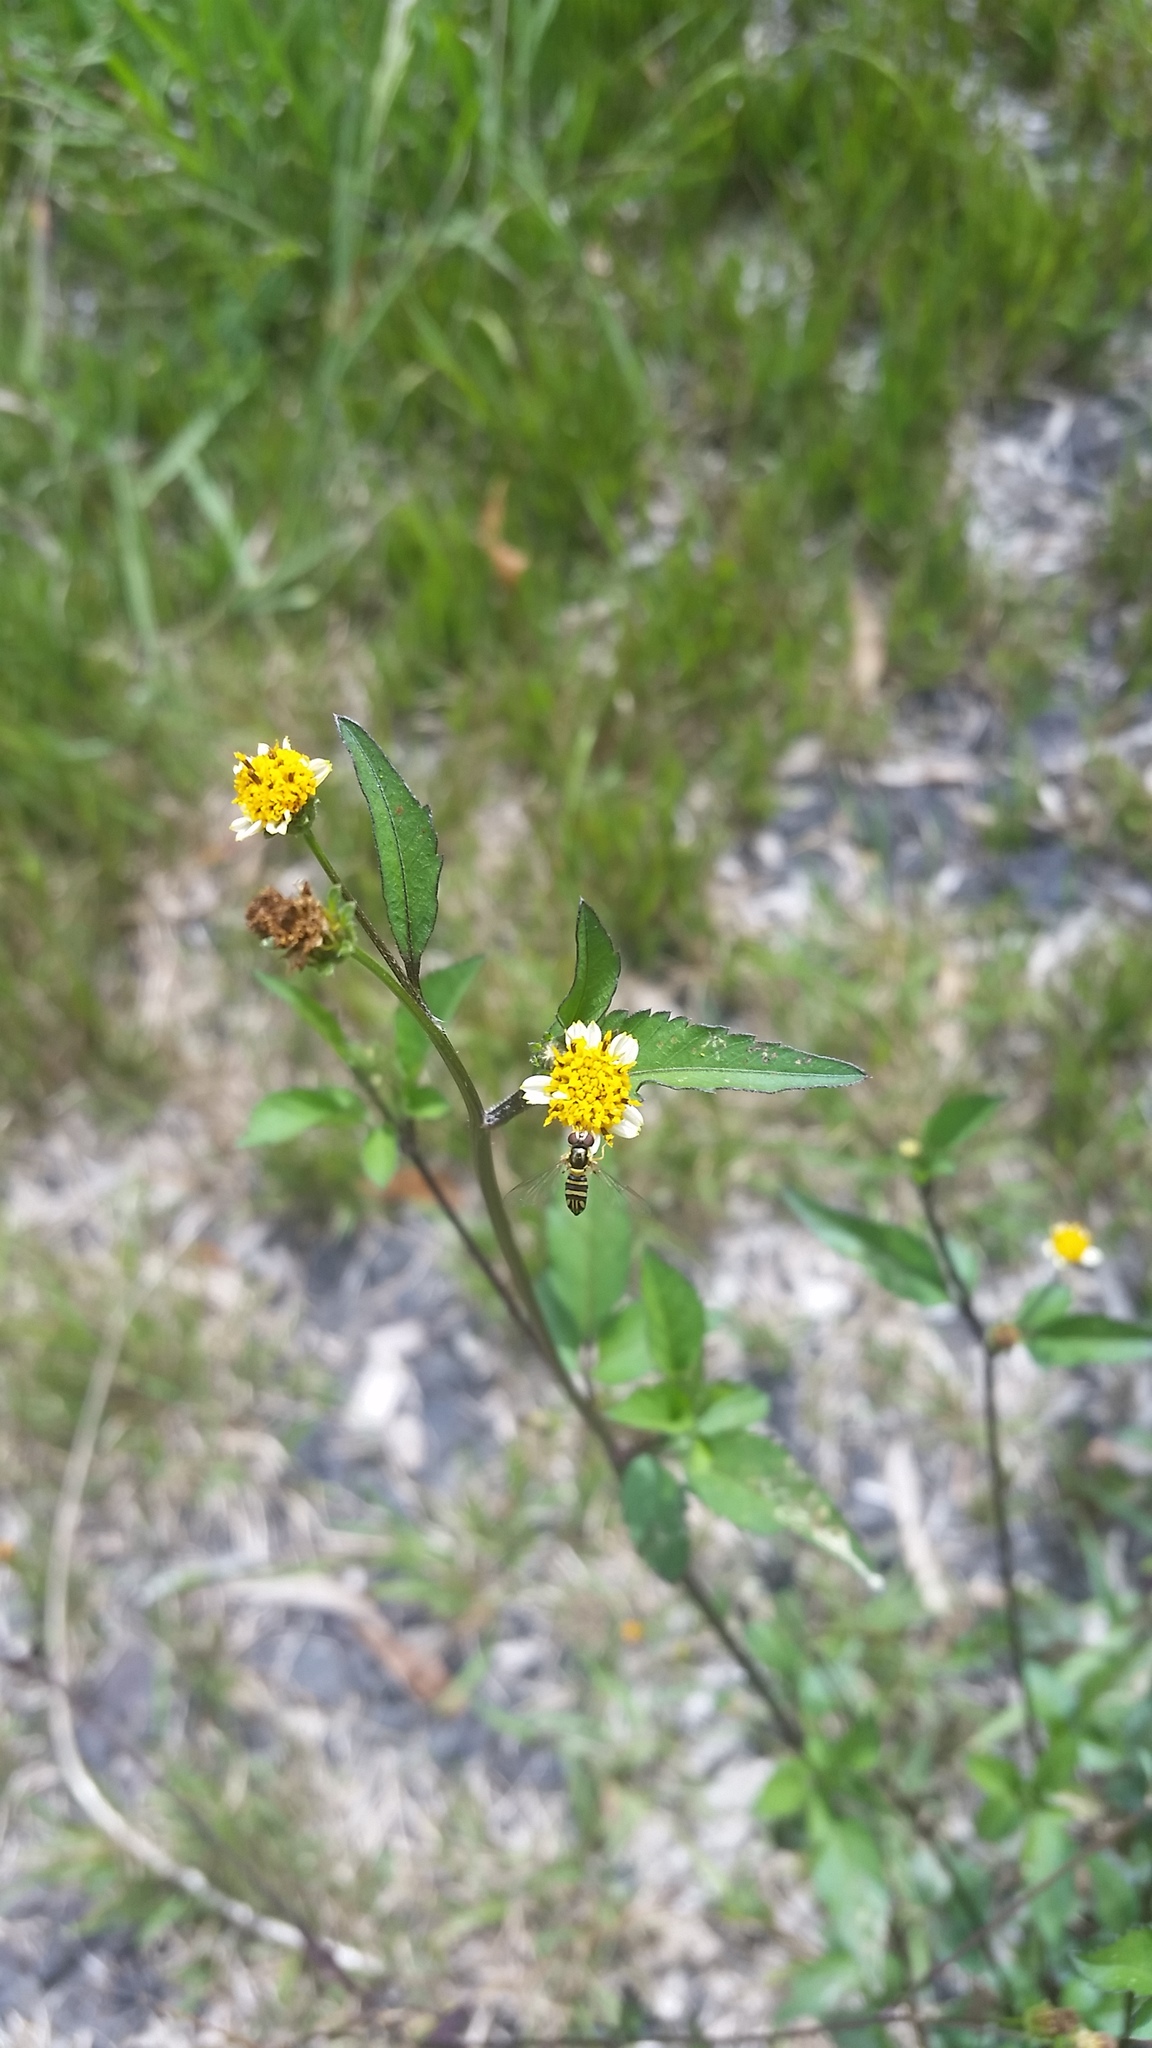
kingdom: Animalia
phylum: Arthropoda
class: Insecta
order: Diptera
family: Syrphidae
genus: Allograpta
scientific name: Allograpta obliqua
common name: Common oblique syrphid
